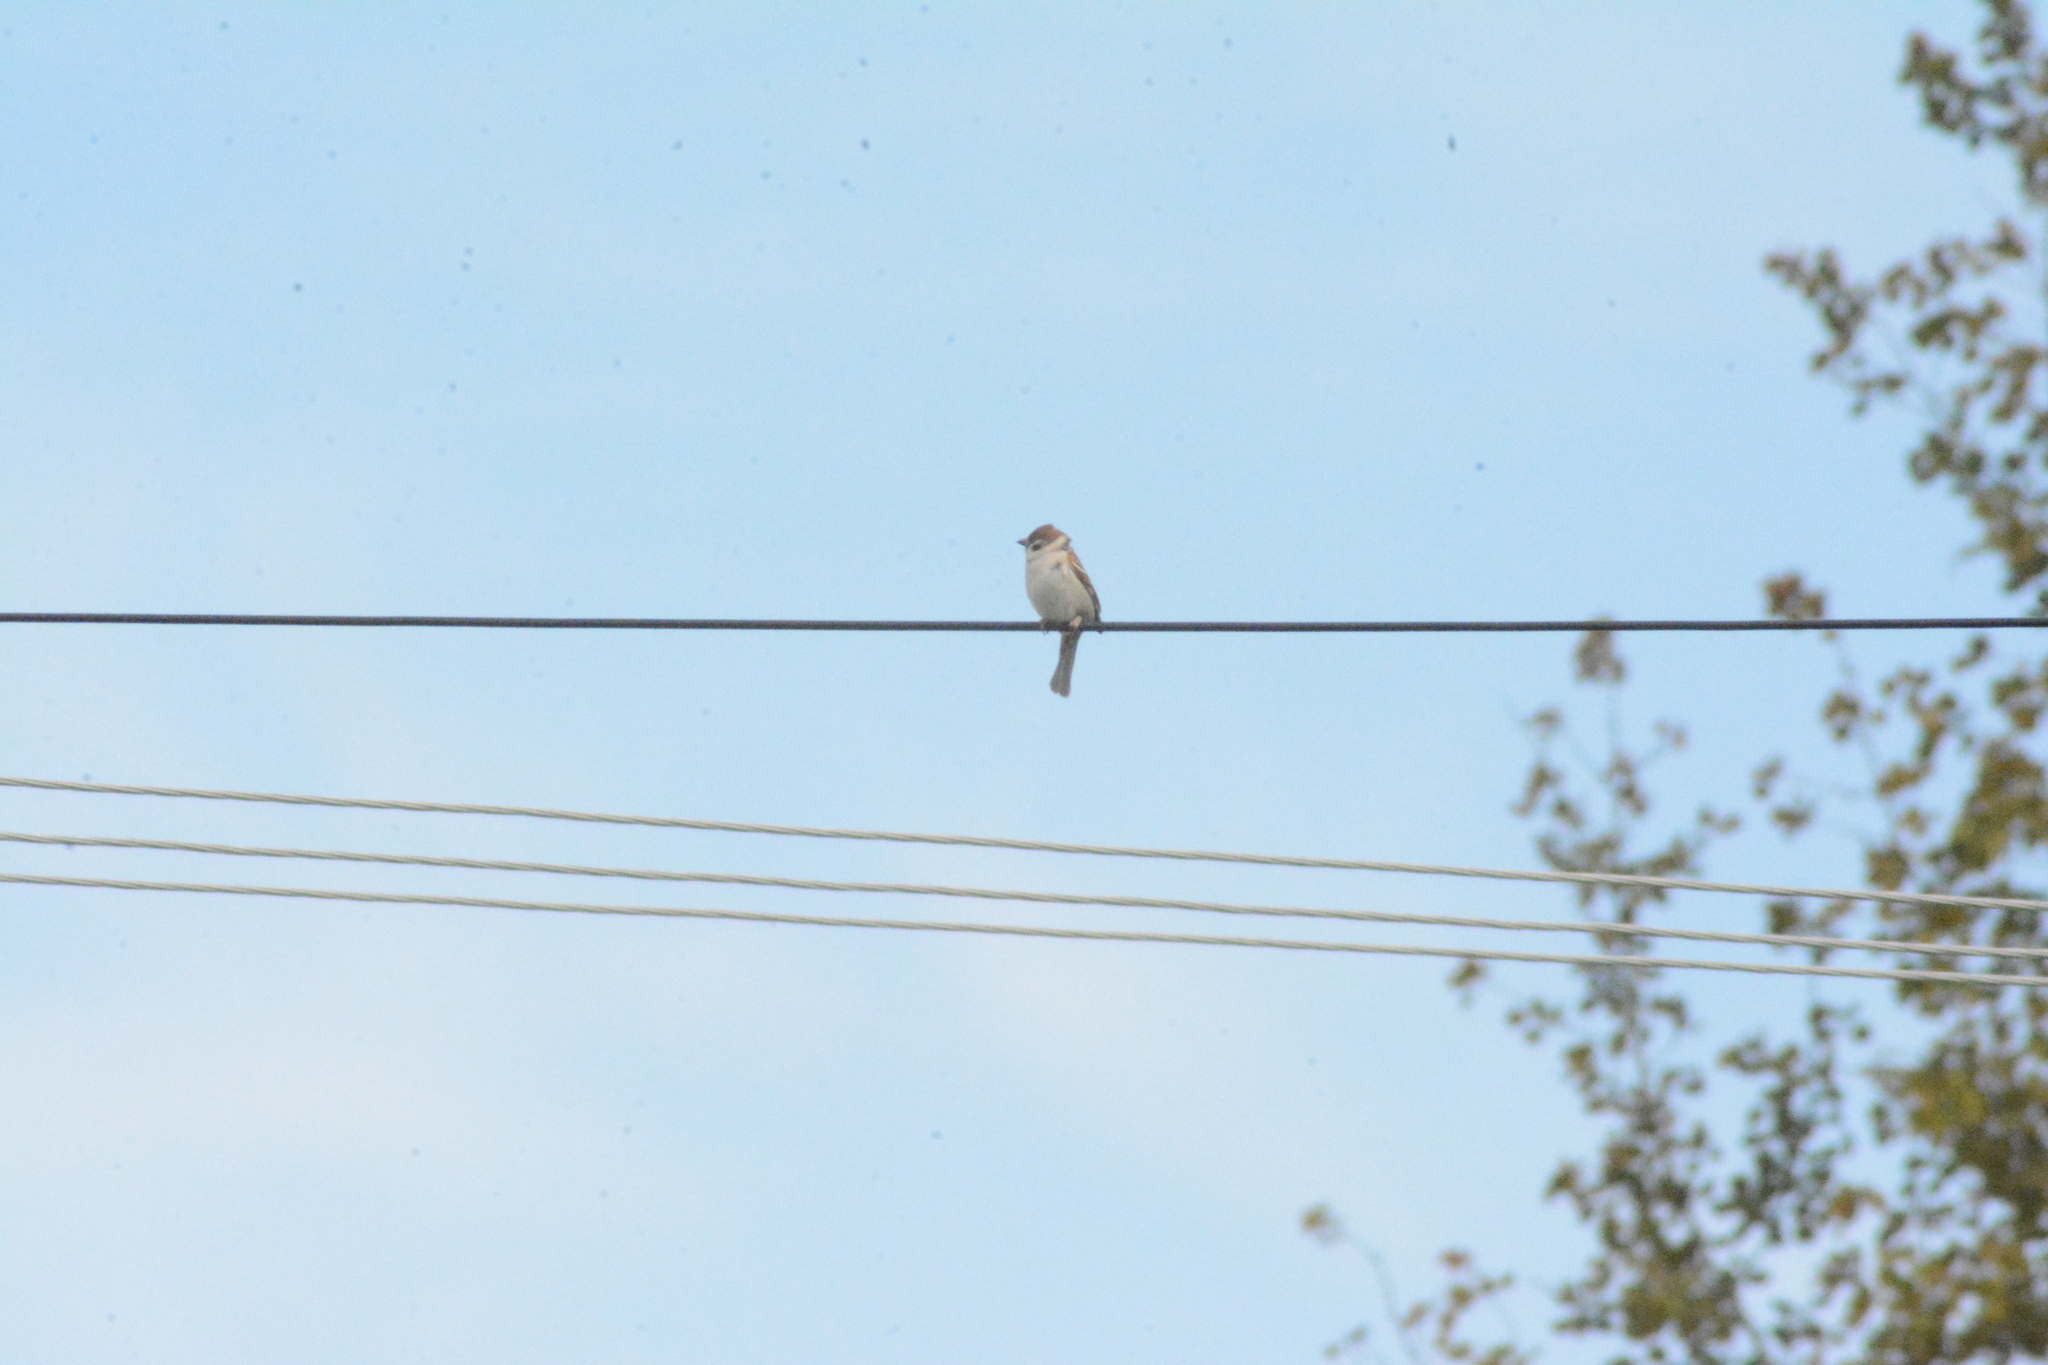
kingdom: Animalia
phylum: Chordata
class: Aves
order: Passeriformes
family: Passeridae
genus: Passer
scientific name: Passer montanus
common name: Eurasian tree sparrow
